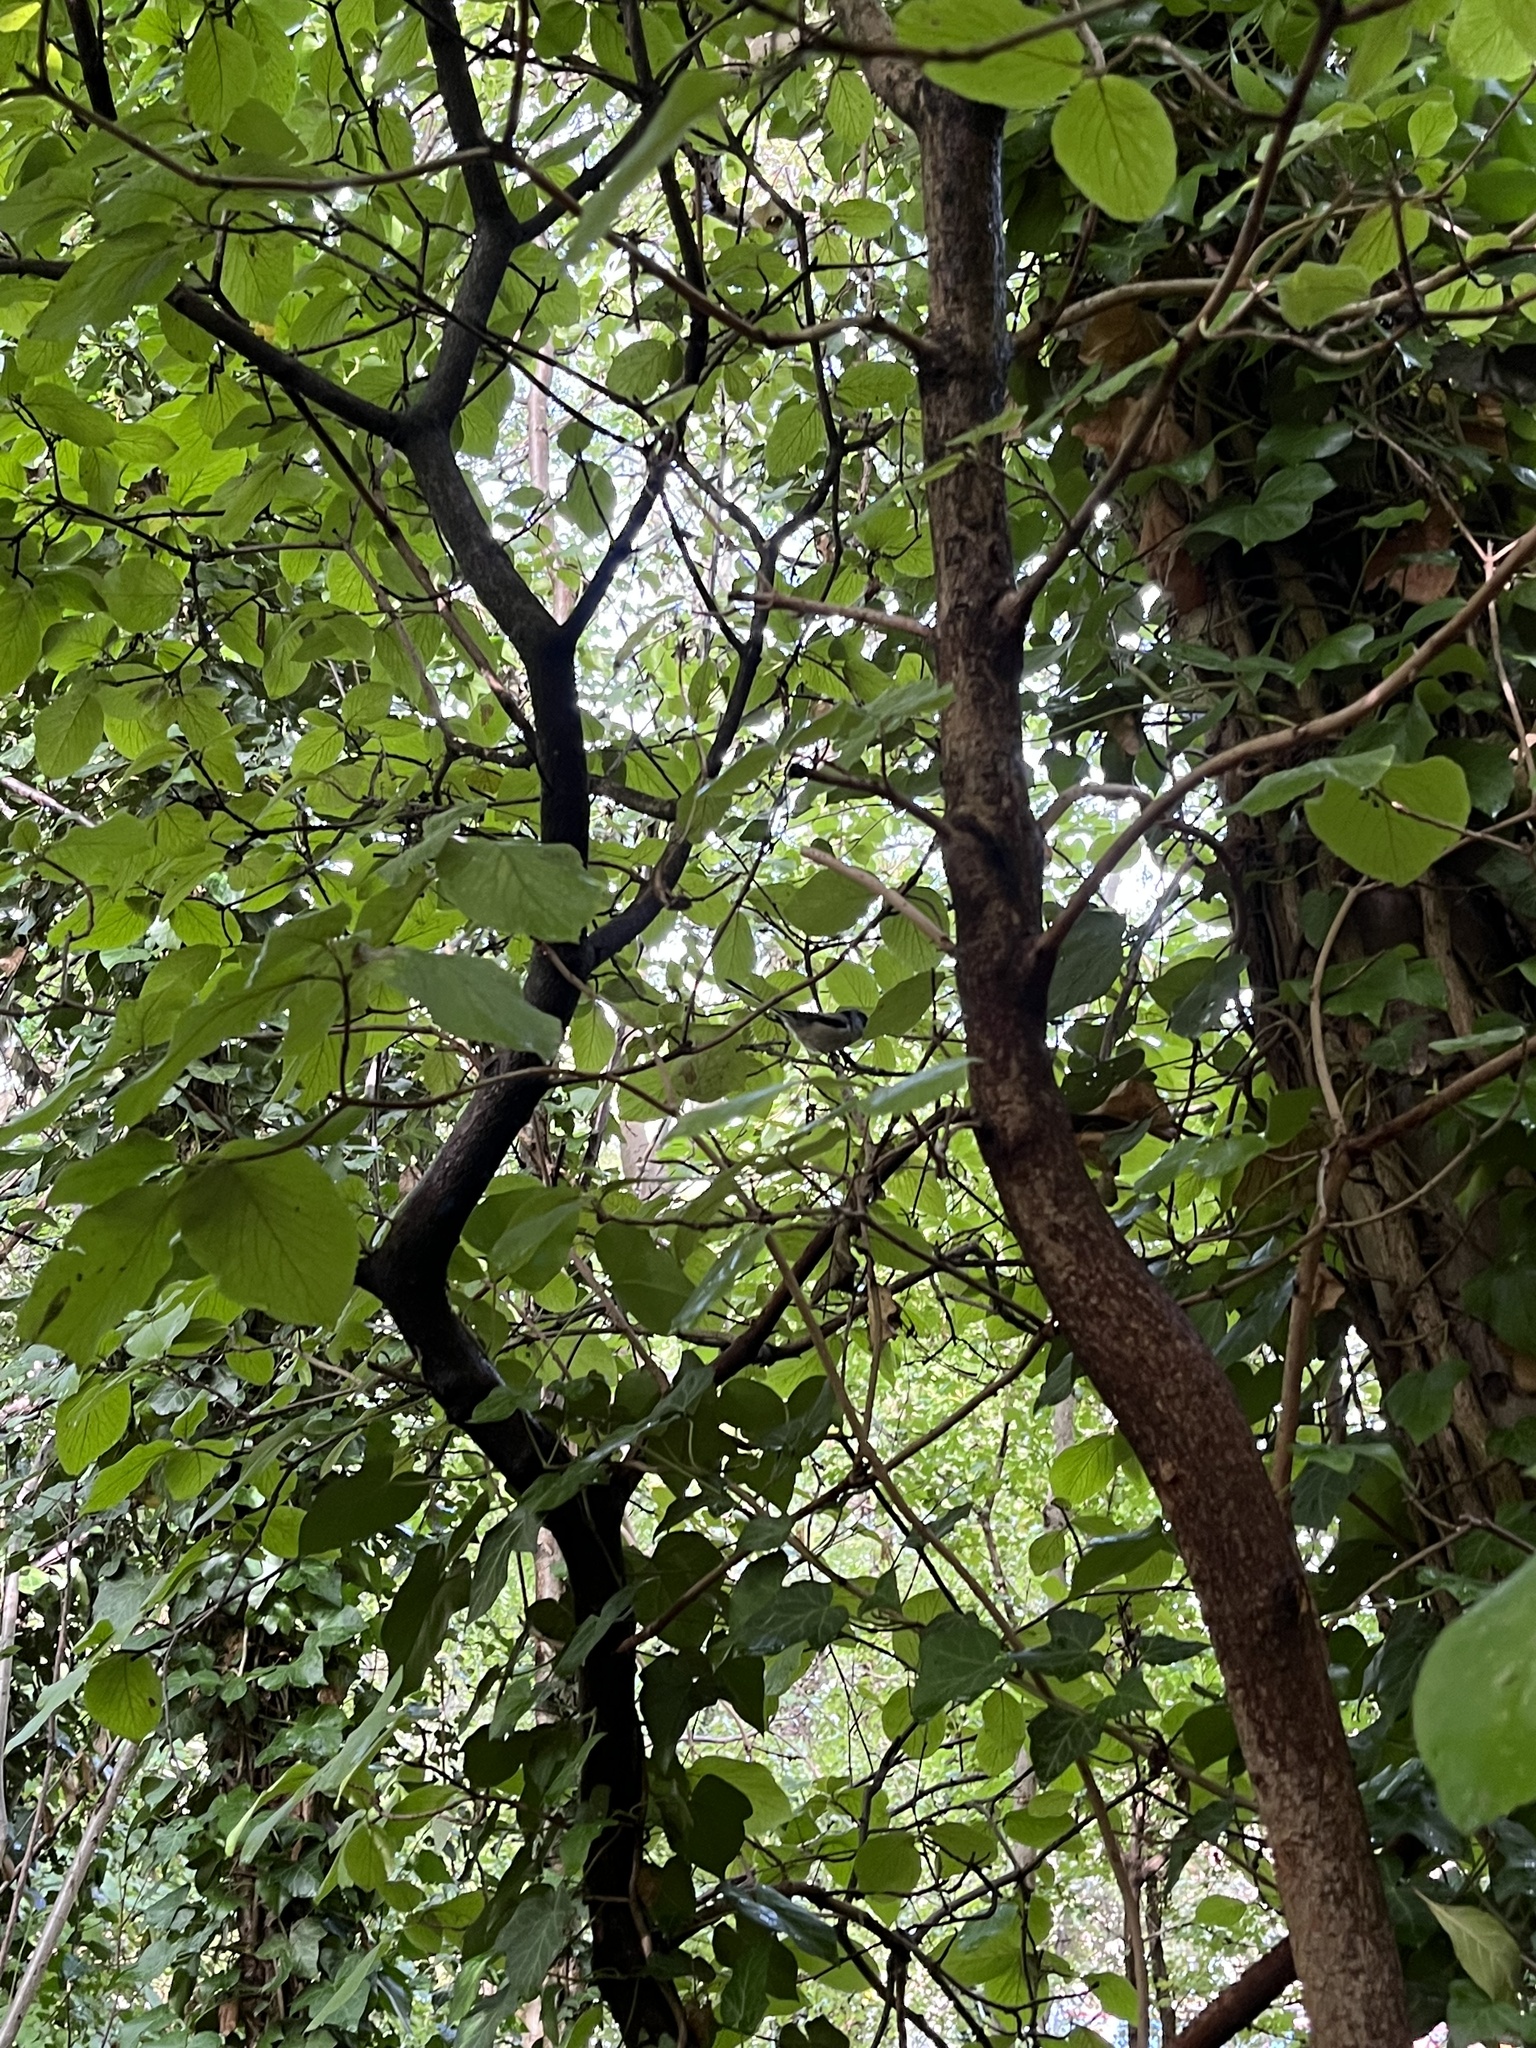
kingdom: Animalia
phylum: Chordata
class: Aves
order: Passeriformes
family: Aegithalidae
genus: Aegithalos
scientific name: Aegithalos caudatus
